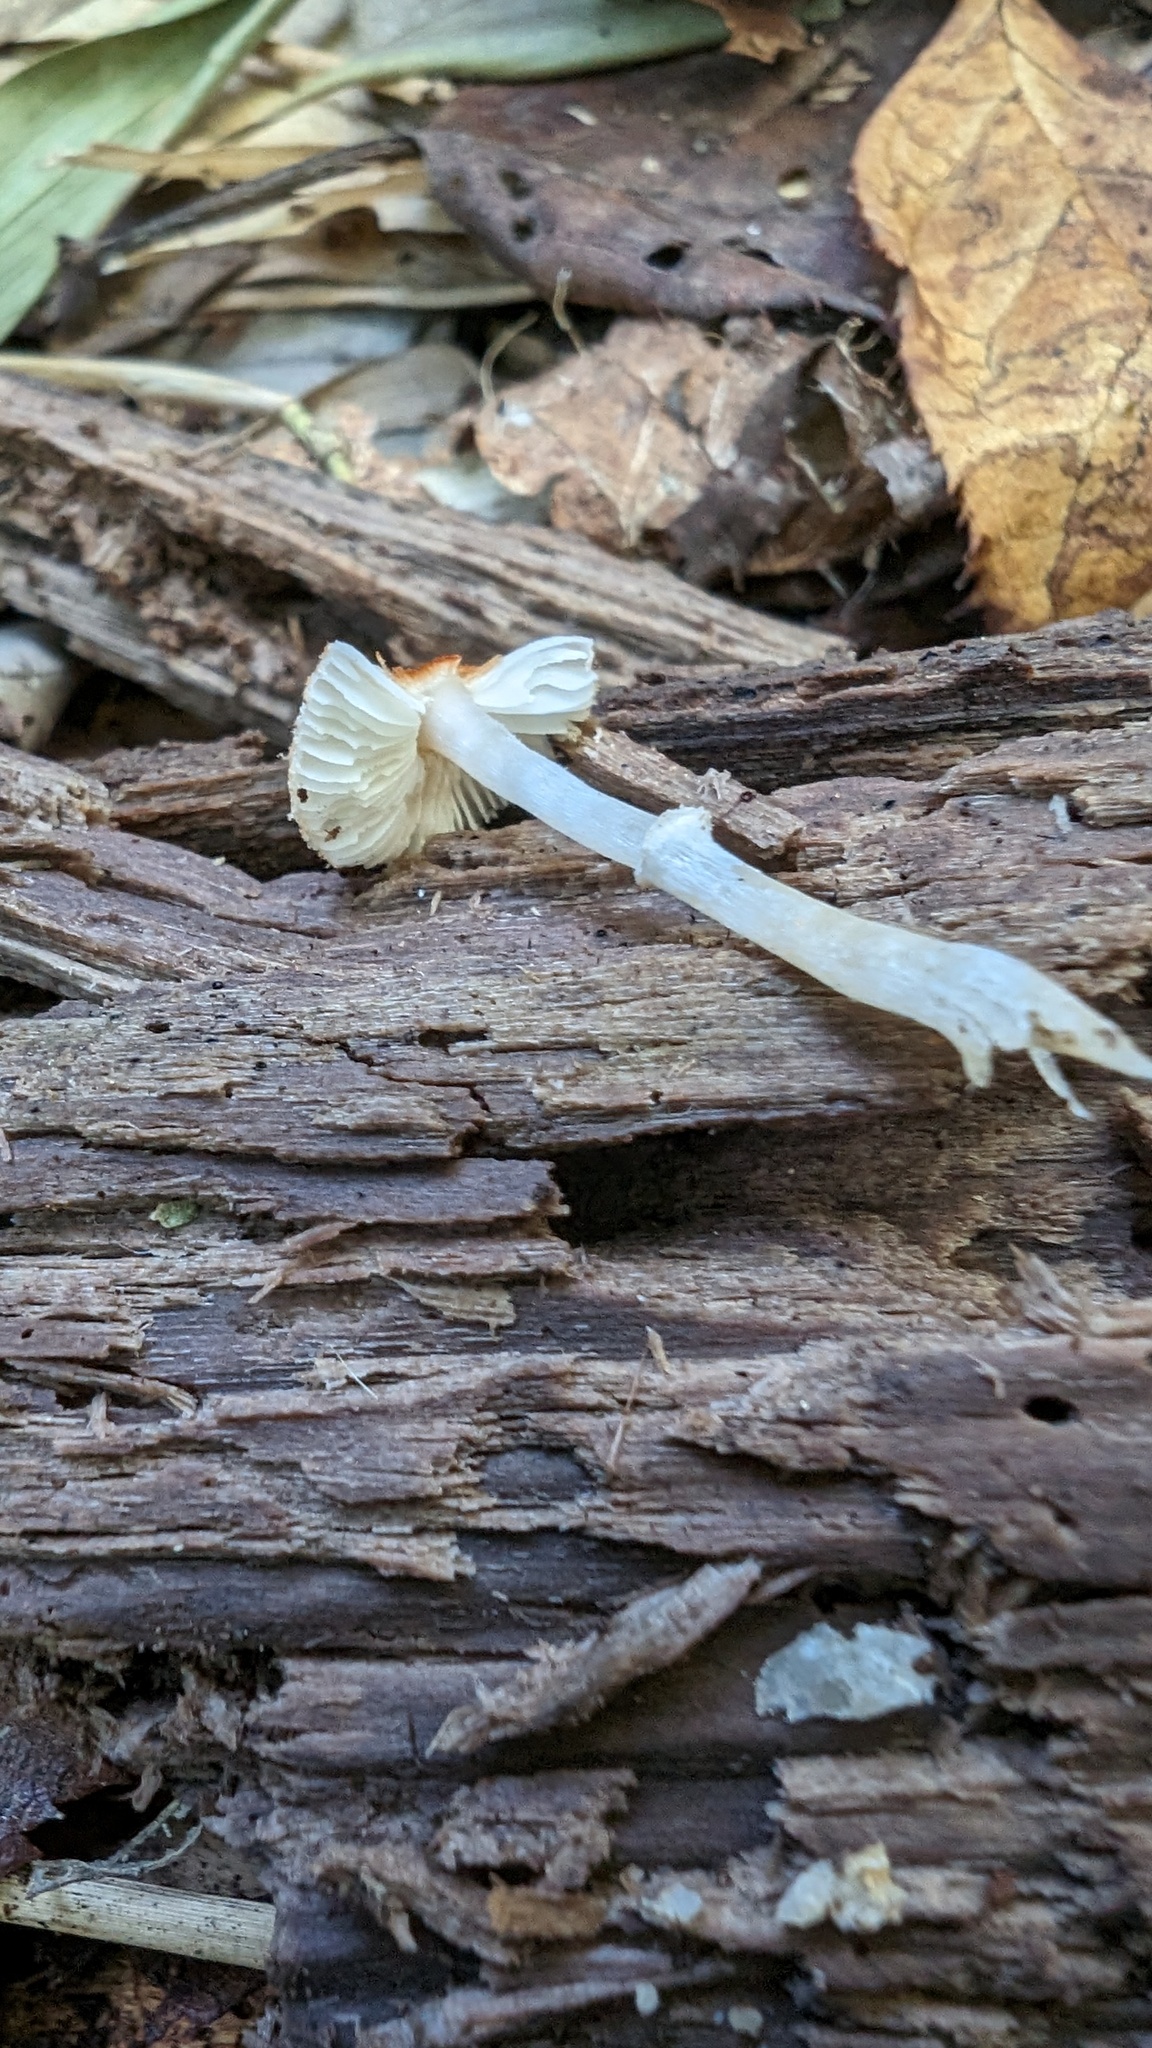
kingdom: Fungi
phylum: Basidiomycota
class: Agaricomycetes
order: Agaricales
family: Agaricaceae
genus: Leucoagaricus
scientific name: Leucoagaricus rubrotinctus
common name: Ruby dapperling
